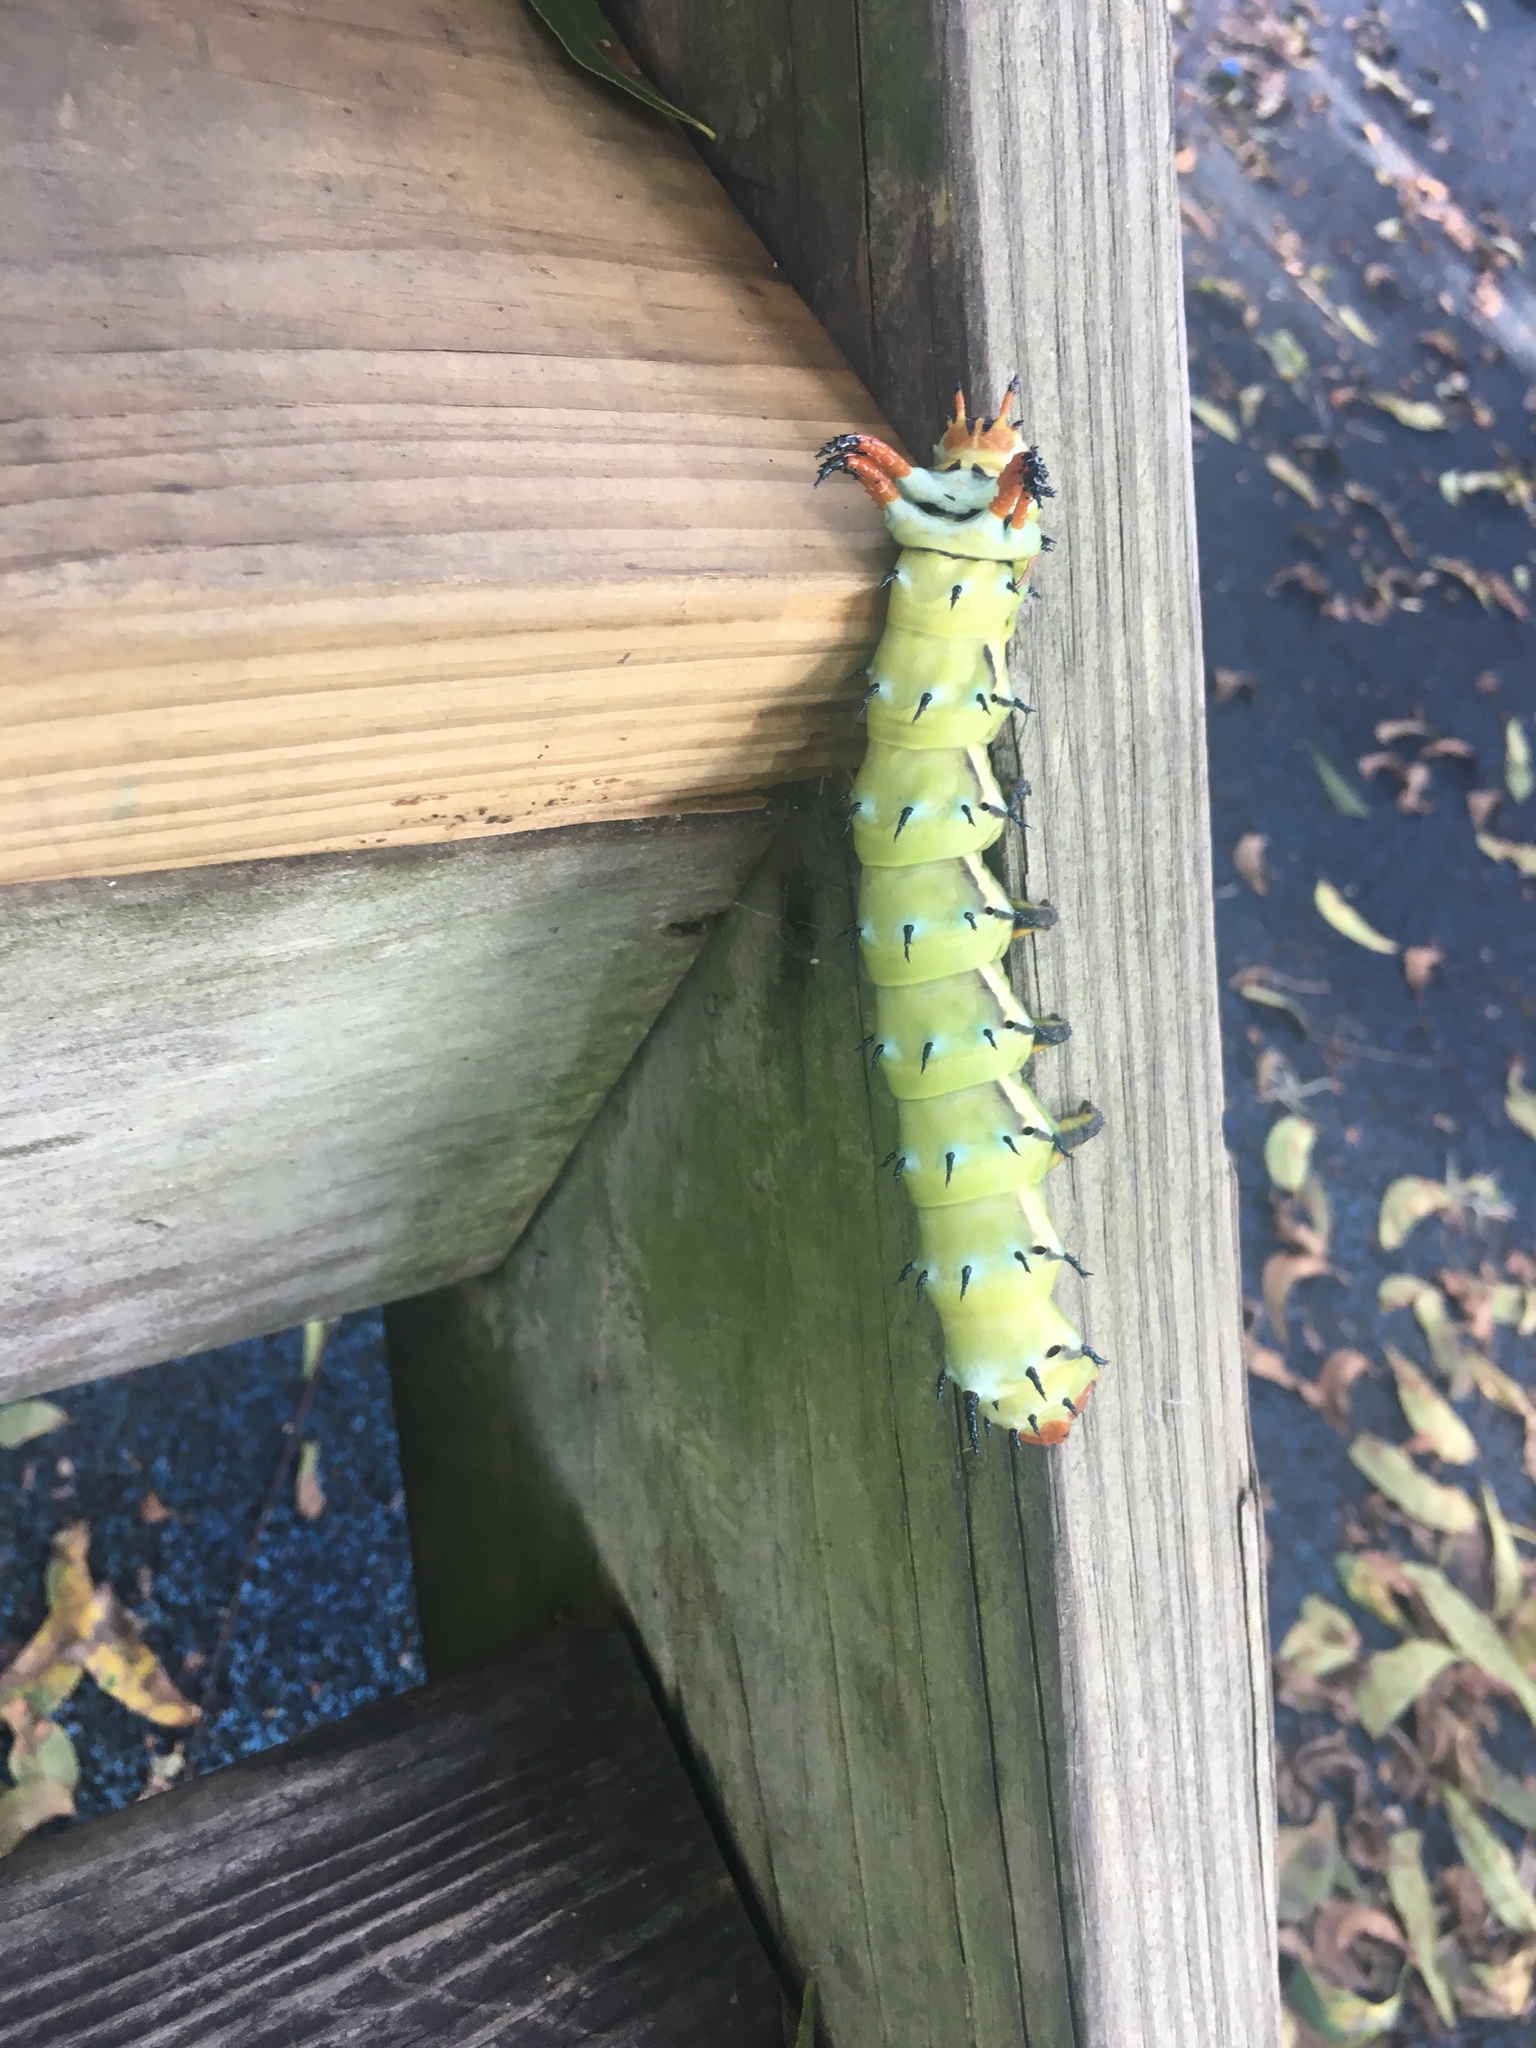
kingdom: Animalia
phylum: Arthropoda
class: Insecta
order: Lepidoptera
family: Saturniidae
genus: Citheronia
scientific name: Citheronia regalis
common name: Hickory horned devil
